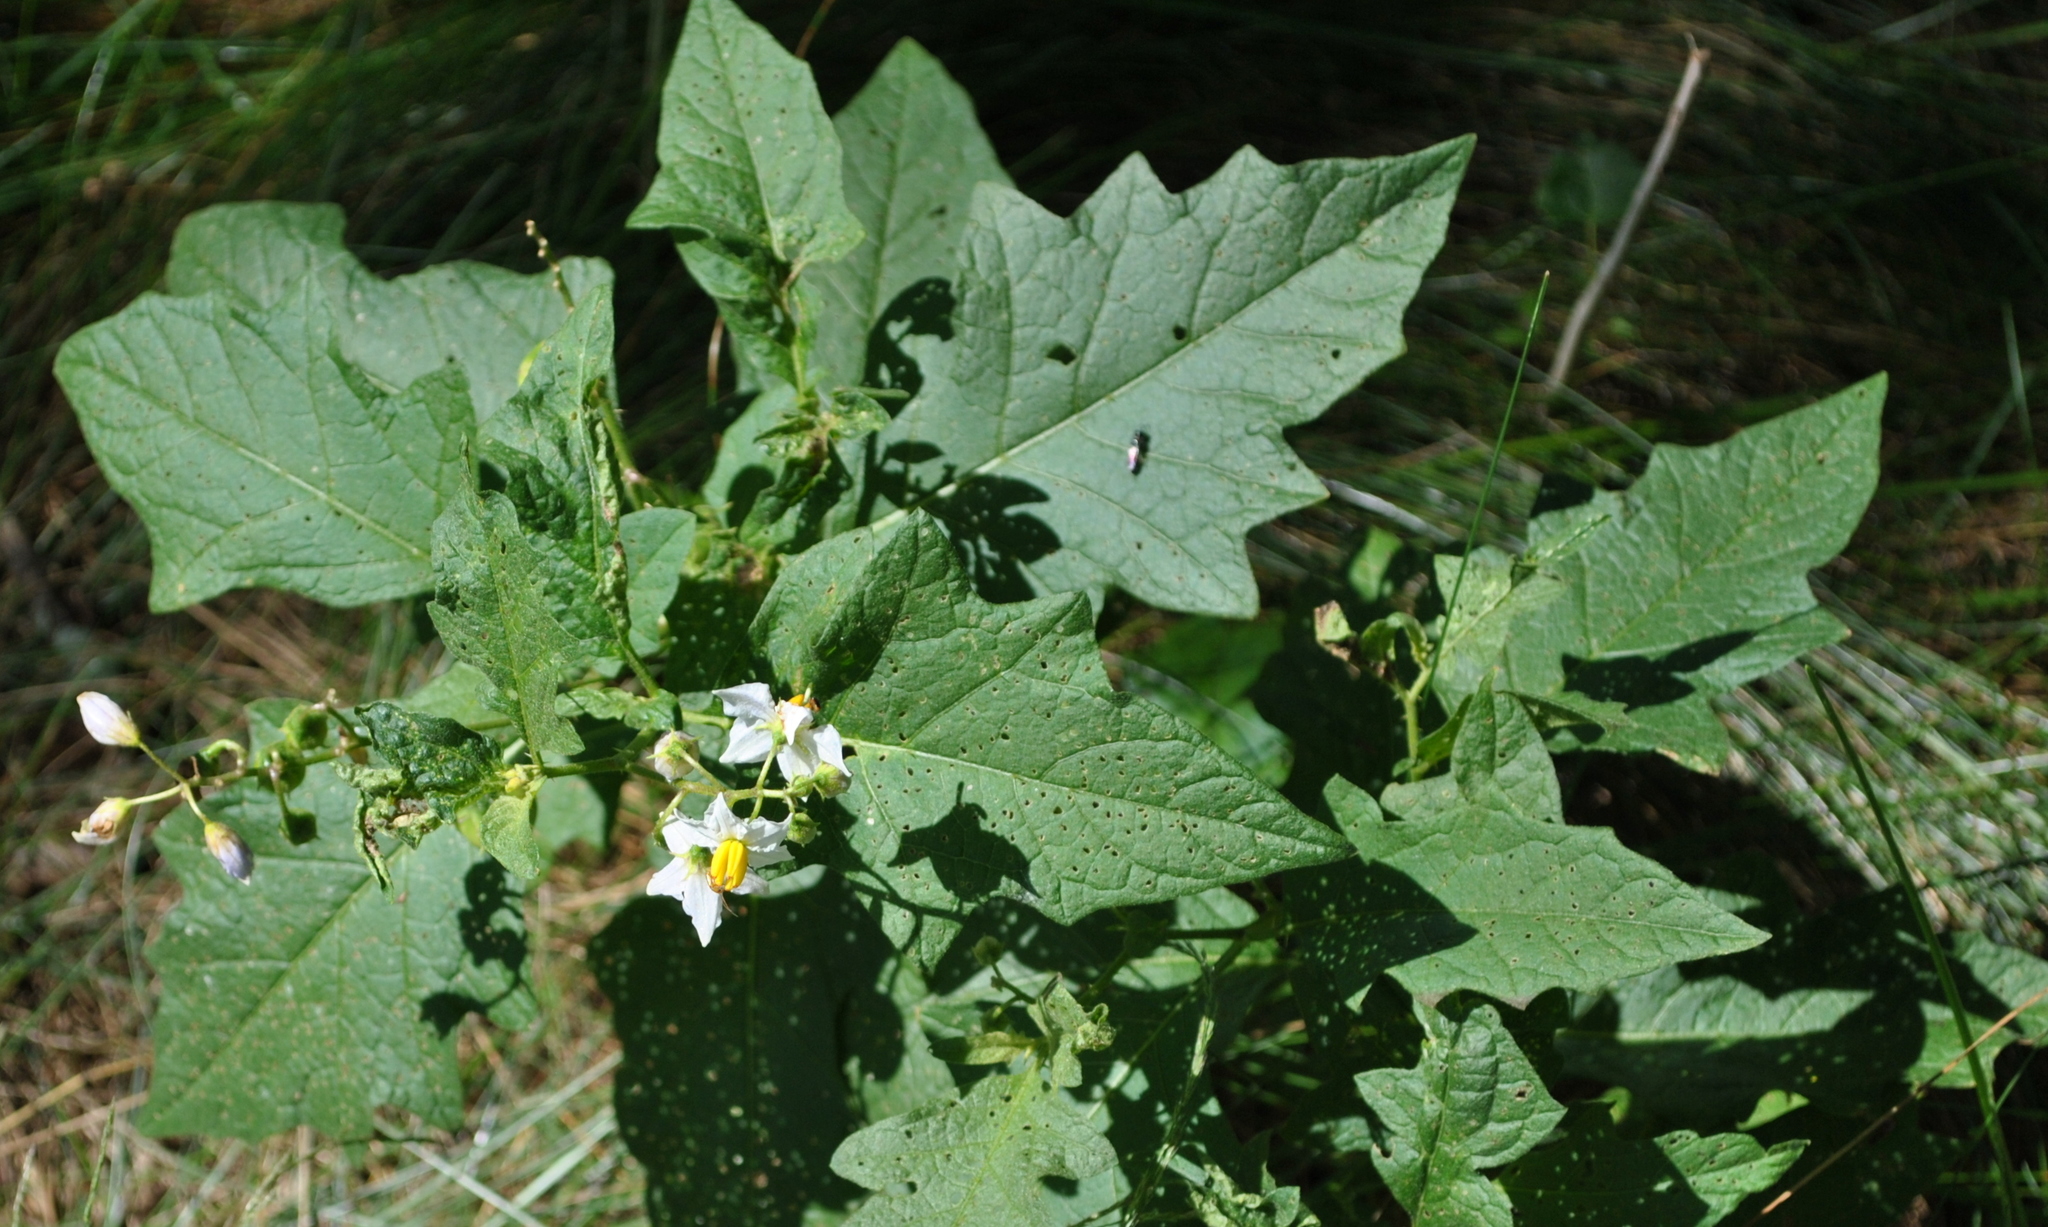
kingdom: Plantae
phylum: Tracheophyta
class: Magnoliopsida
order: Solanales
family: Solanaceae
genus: Solanum
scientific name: Solanum carolinense
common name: Horse-nettle
